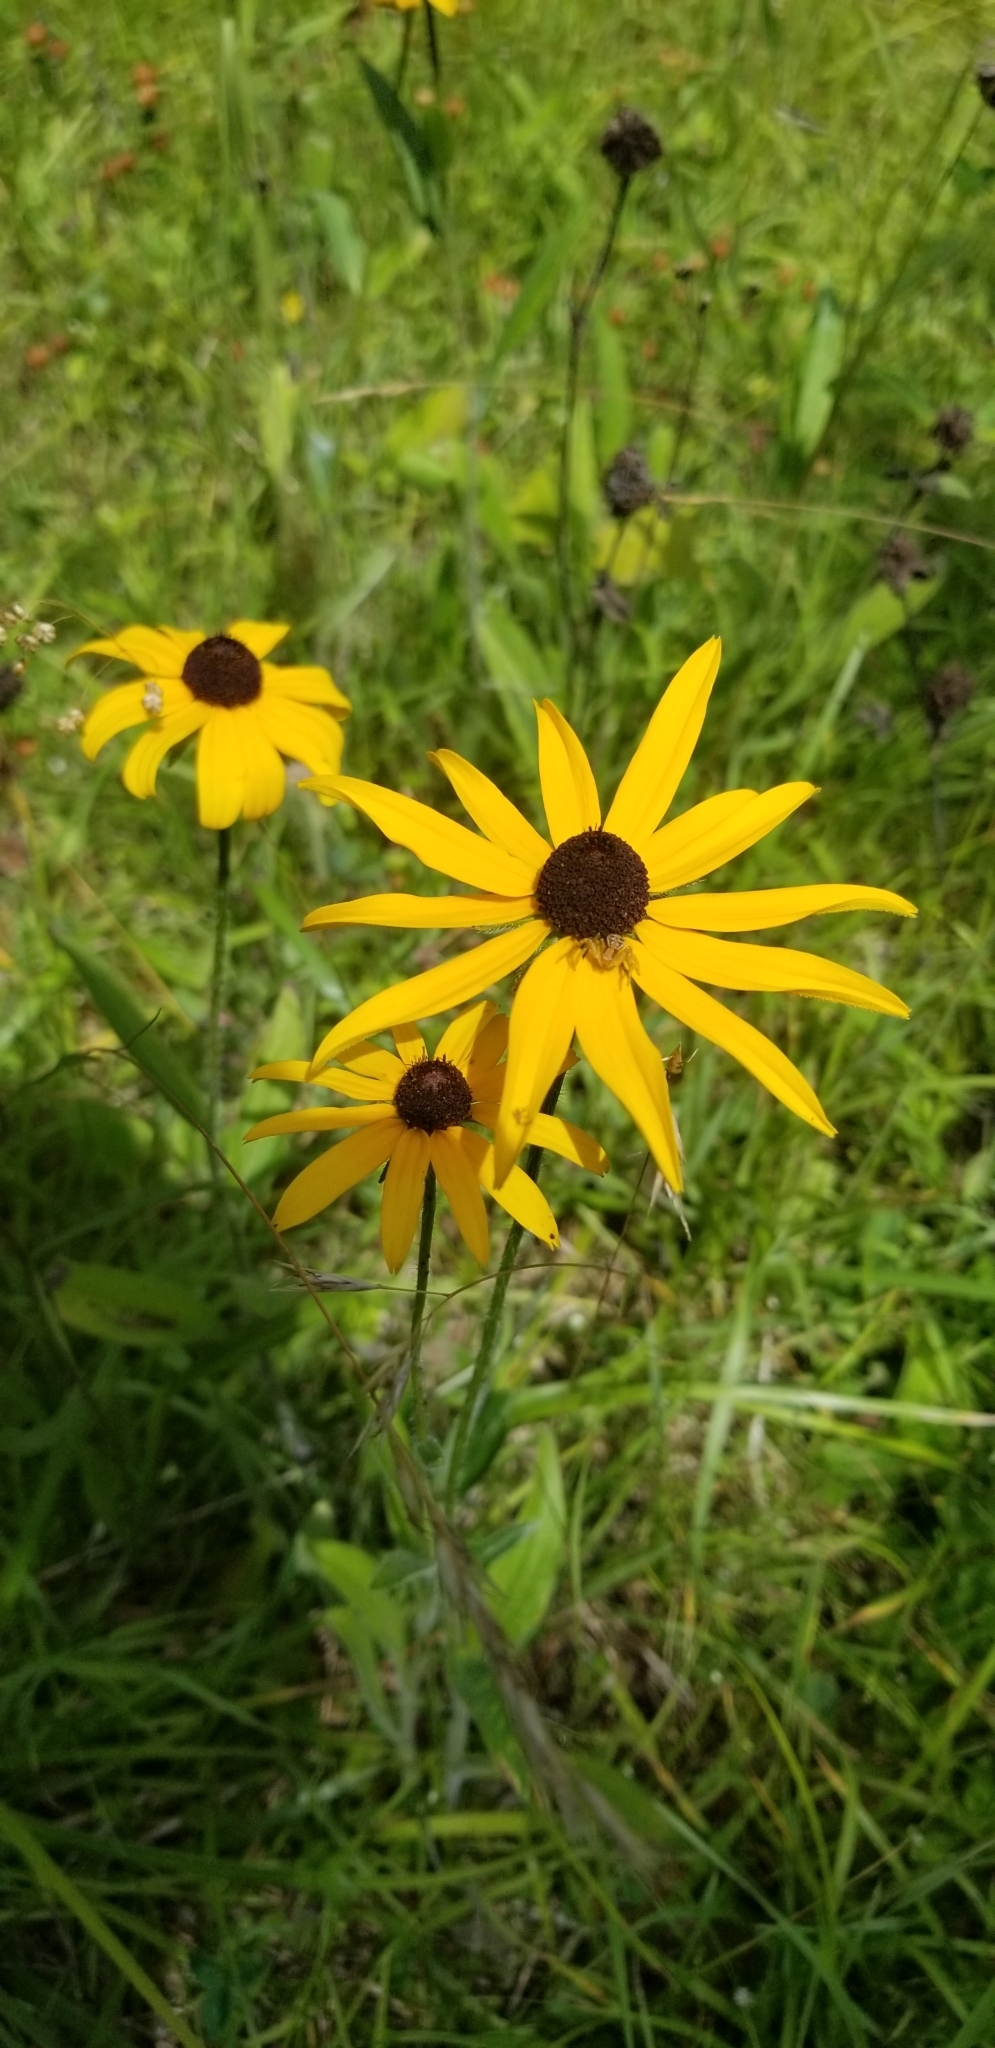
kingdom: Plantae
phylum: Tracheophyta
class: Magnoliopsida
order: Asterales
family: Asteraceae
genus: Rudbeckia
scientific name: Rudbeckia hirta
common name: Black-eyed-susan
